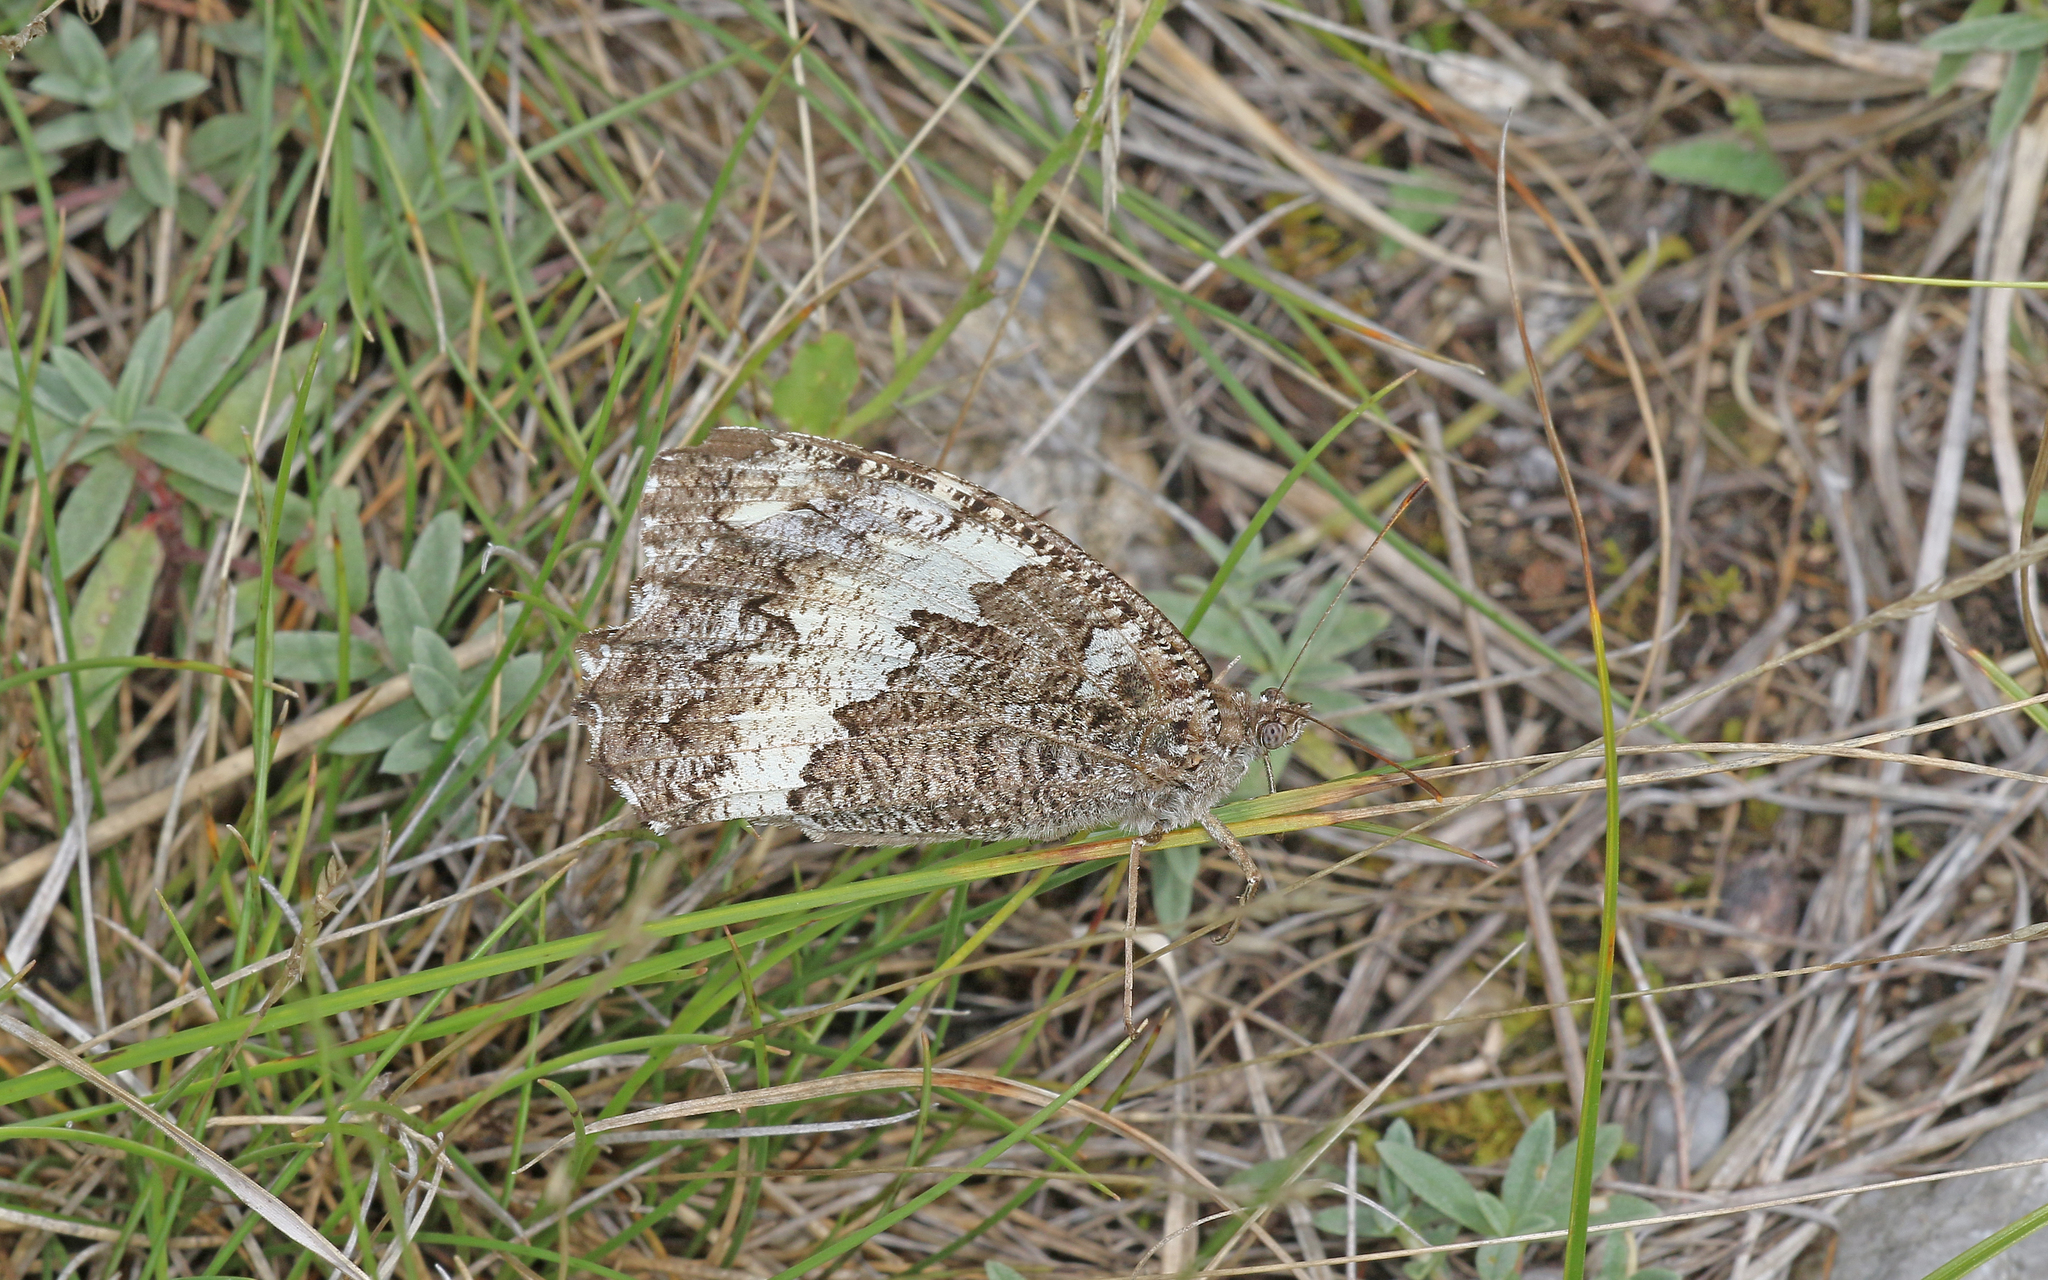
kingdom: Animalia
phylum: Arthropoda
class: Insecta
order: Lepidoptera
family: Lycaenidae
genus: Loweia
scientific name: Loweia tityrus
